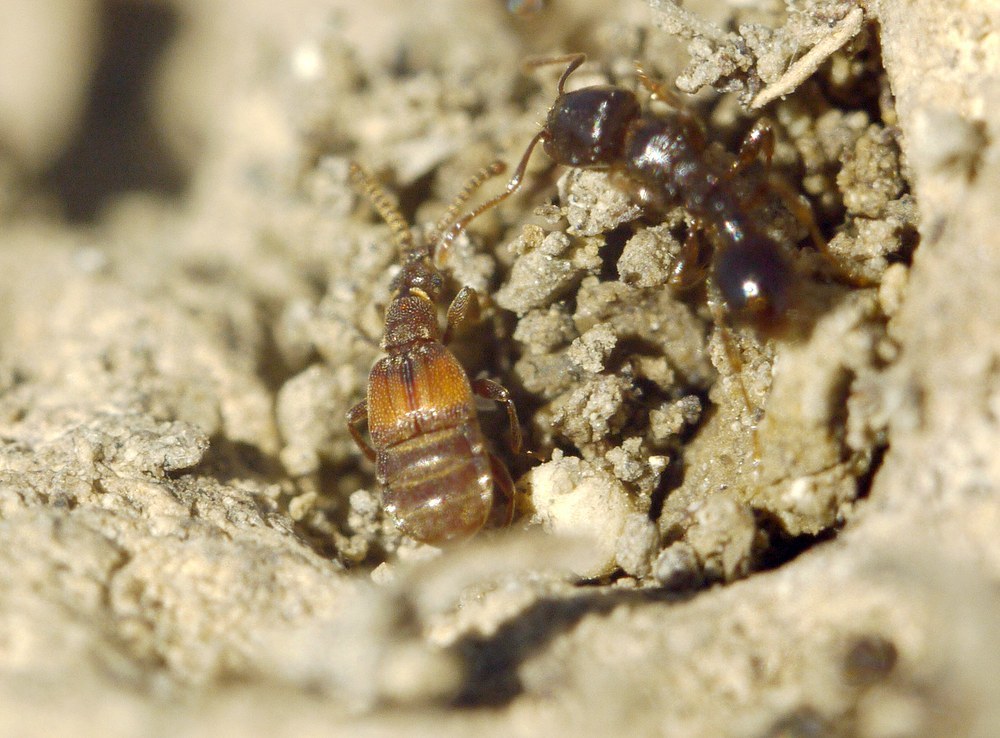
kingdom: Animalia
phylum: Arthropoda
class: Insecta
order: Coleoptera
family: Staphylinidae
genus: Chennium
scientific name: Chennium bituberculatum
